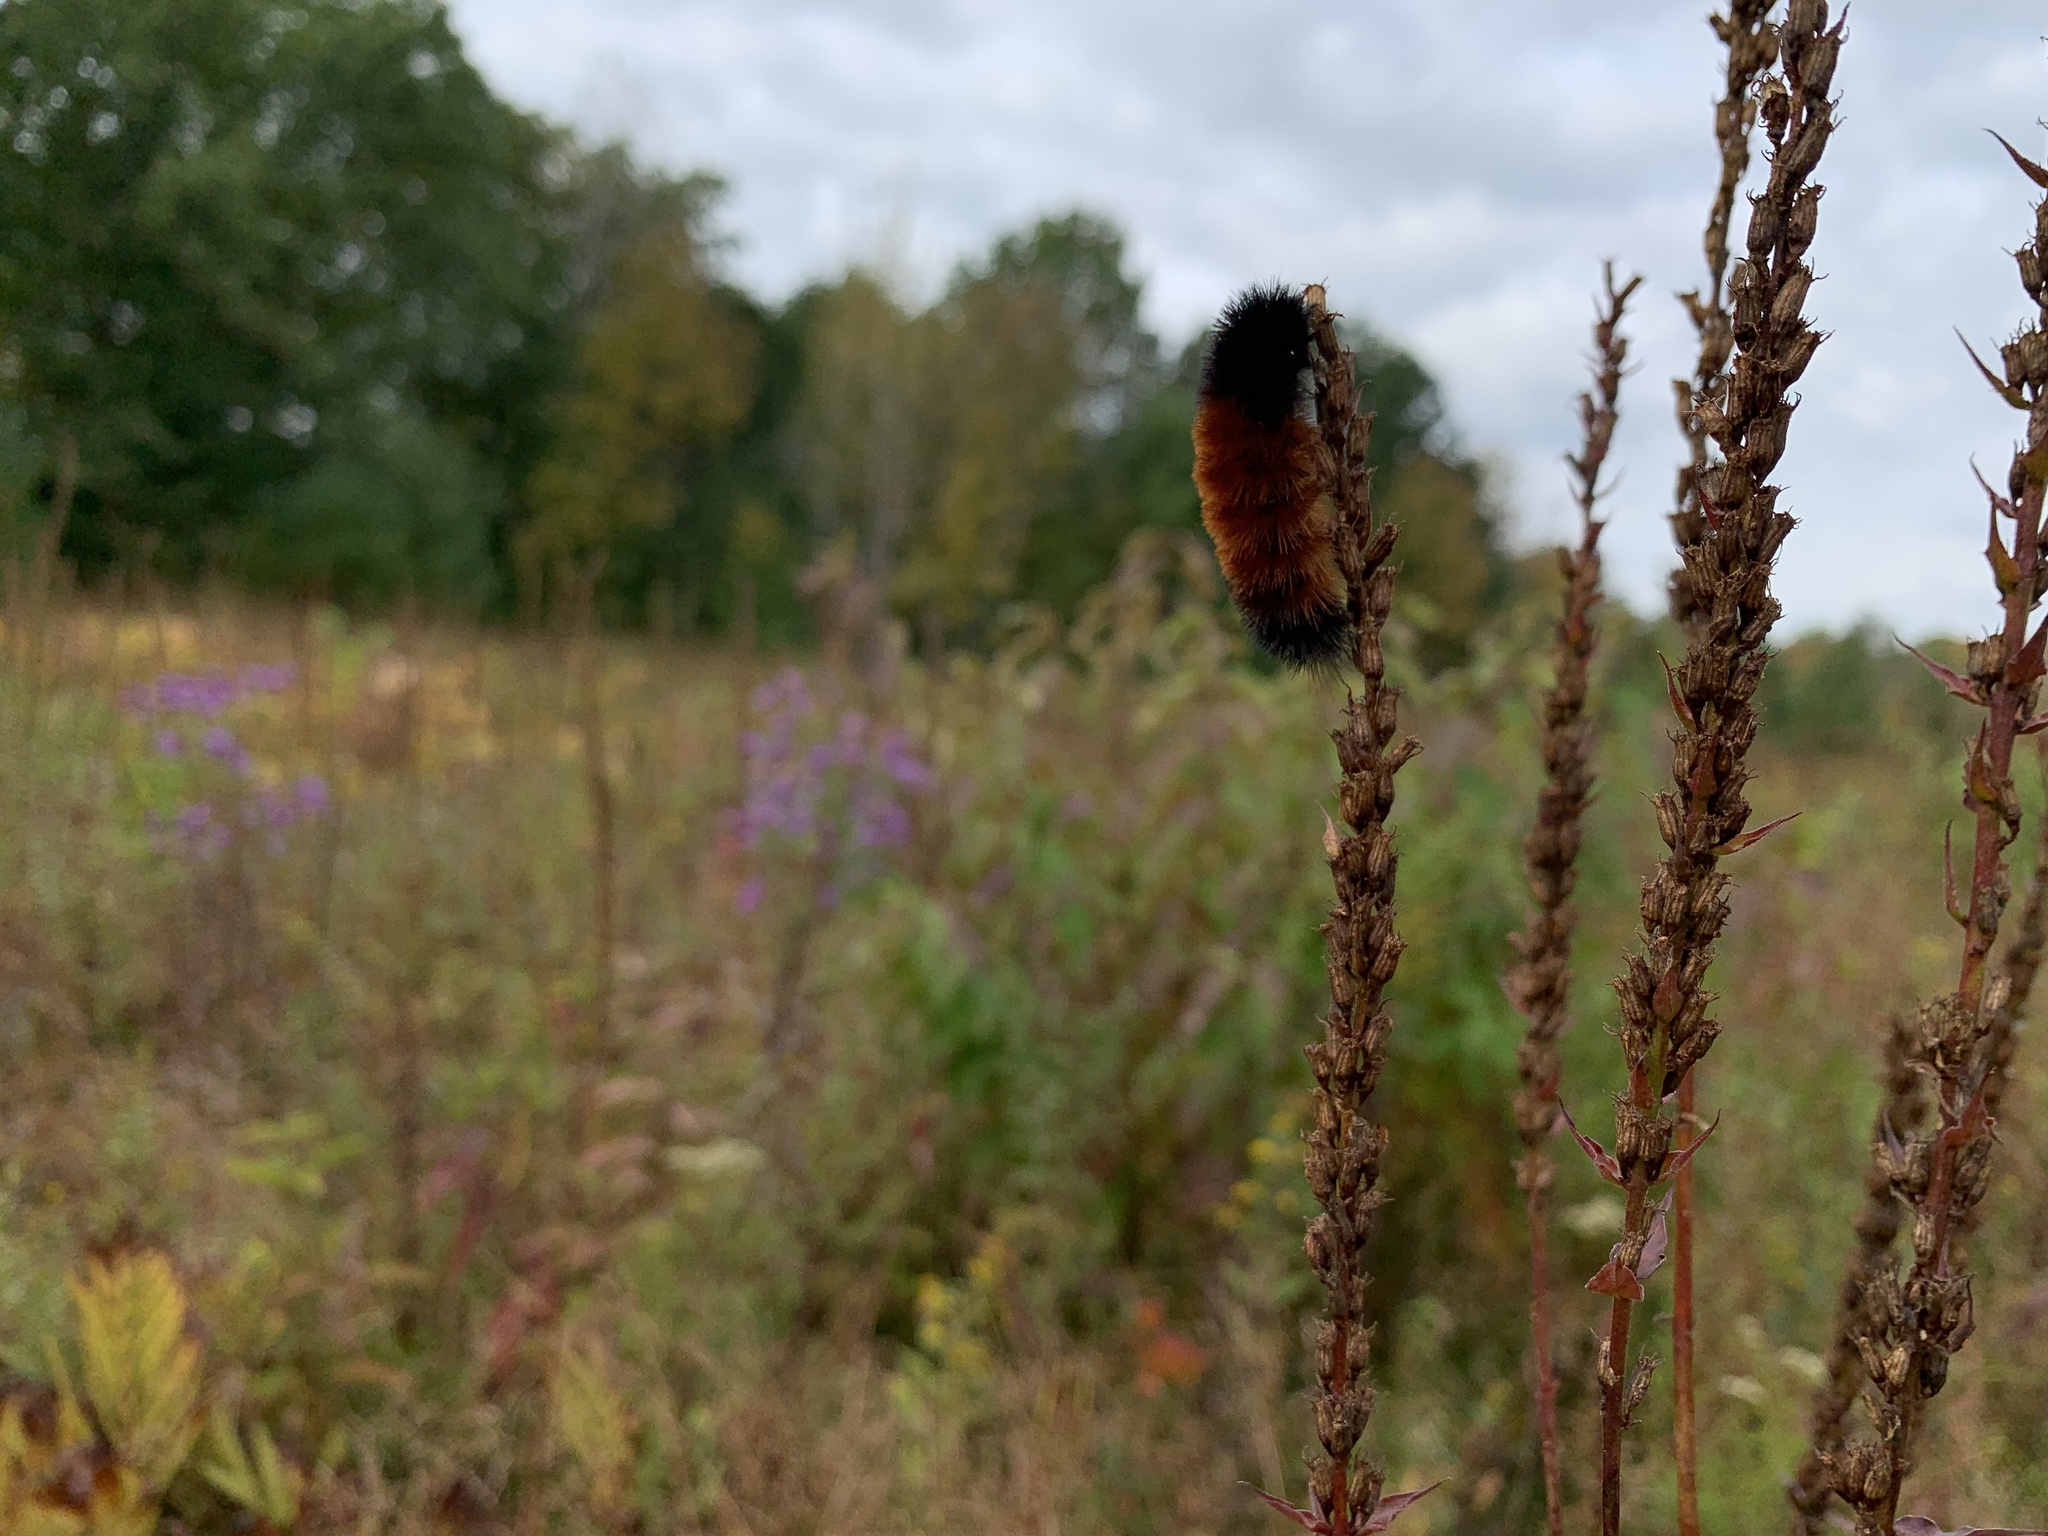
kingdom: Animalia
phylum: Arthropoda
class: Insecta
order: Lepidoptera
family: Erebidae
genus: Pyrrharctia
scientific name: Pyrrharctia isabella
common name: Isabella tiger moth
